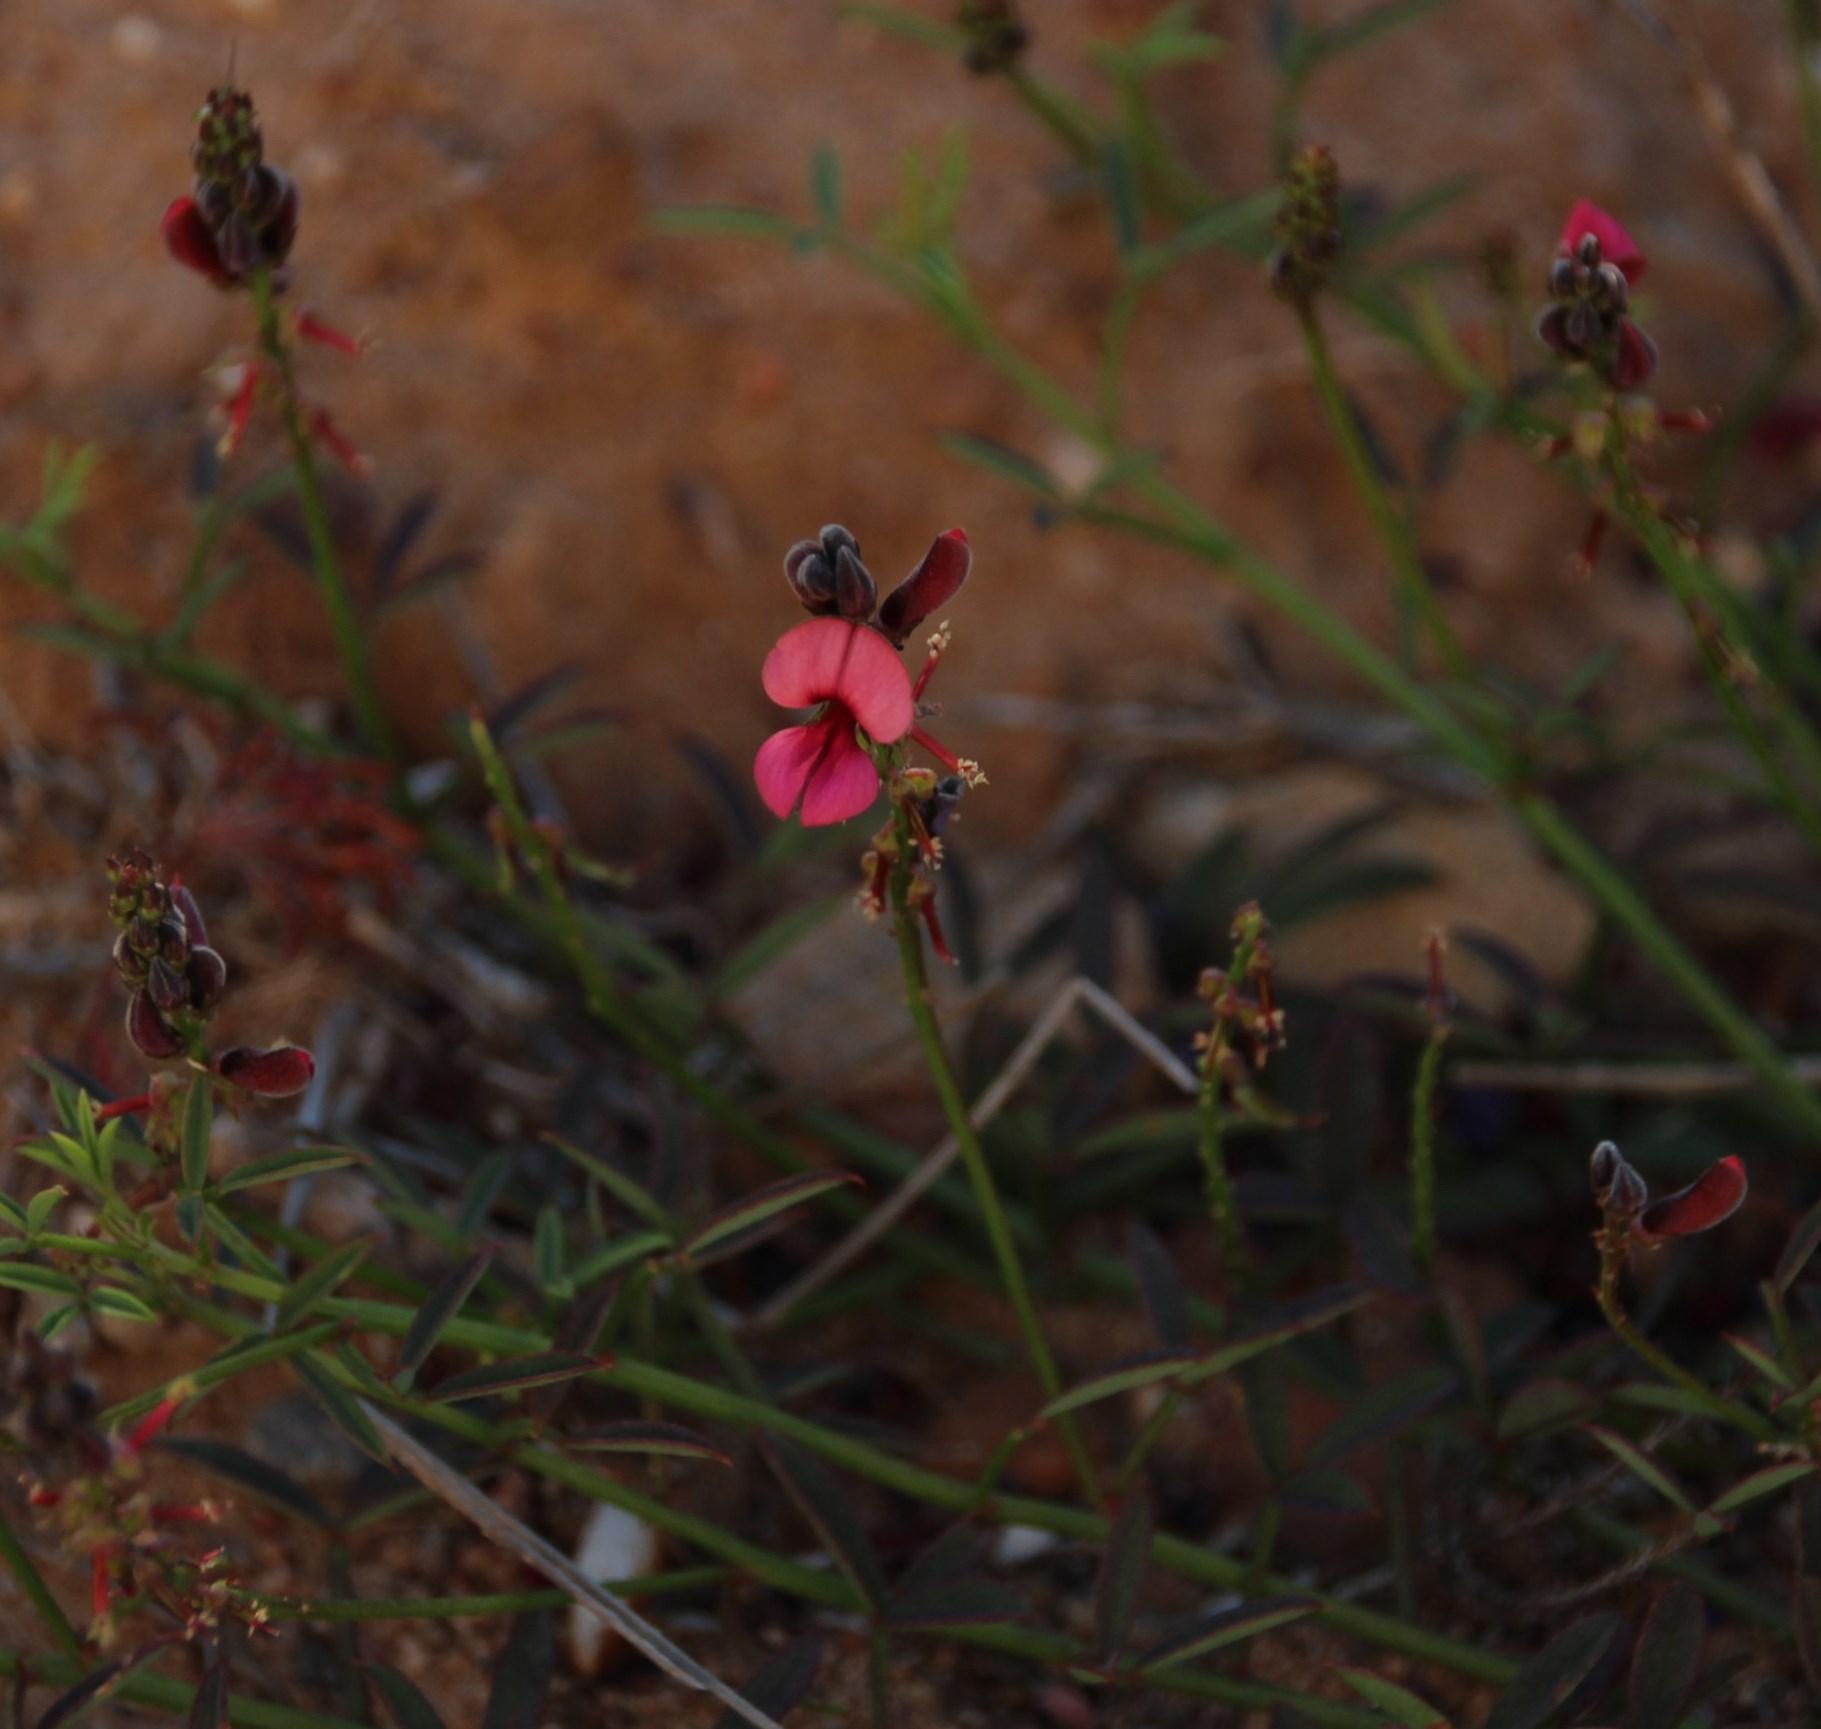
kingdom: Plantae
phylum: Tracheophyta
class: Magnoliopsida
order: Fabales
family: Fabaceae
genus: Indigofera
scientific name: Indigofera heterophylla
